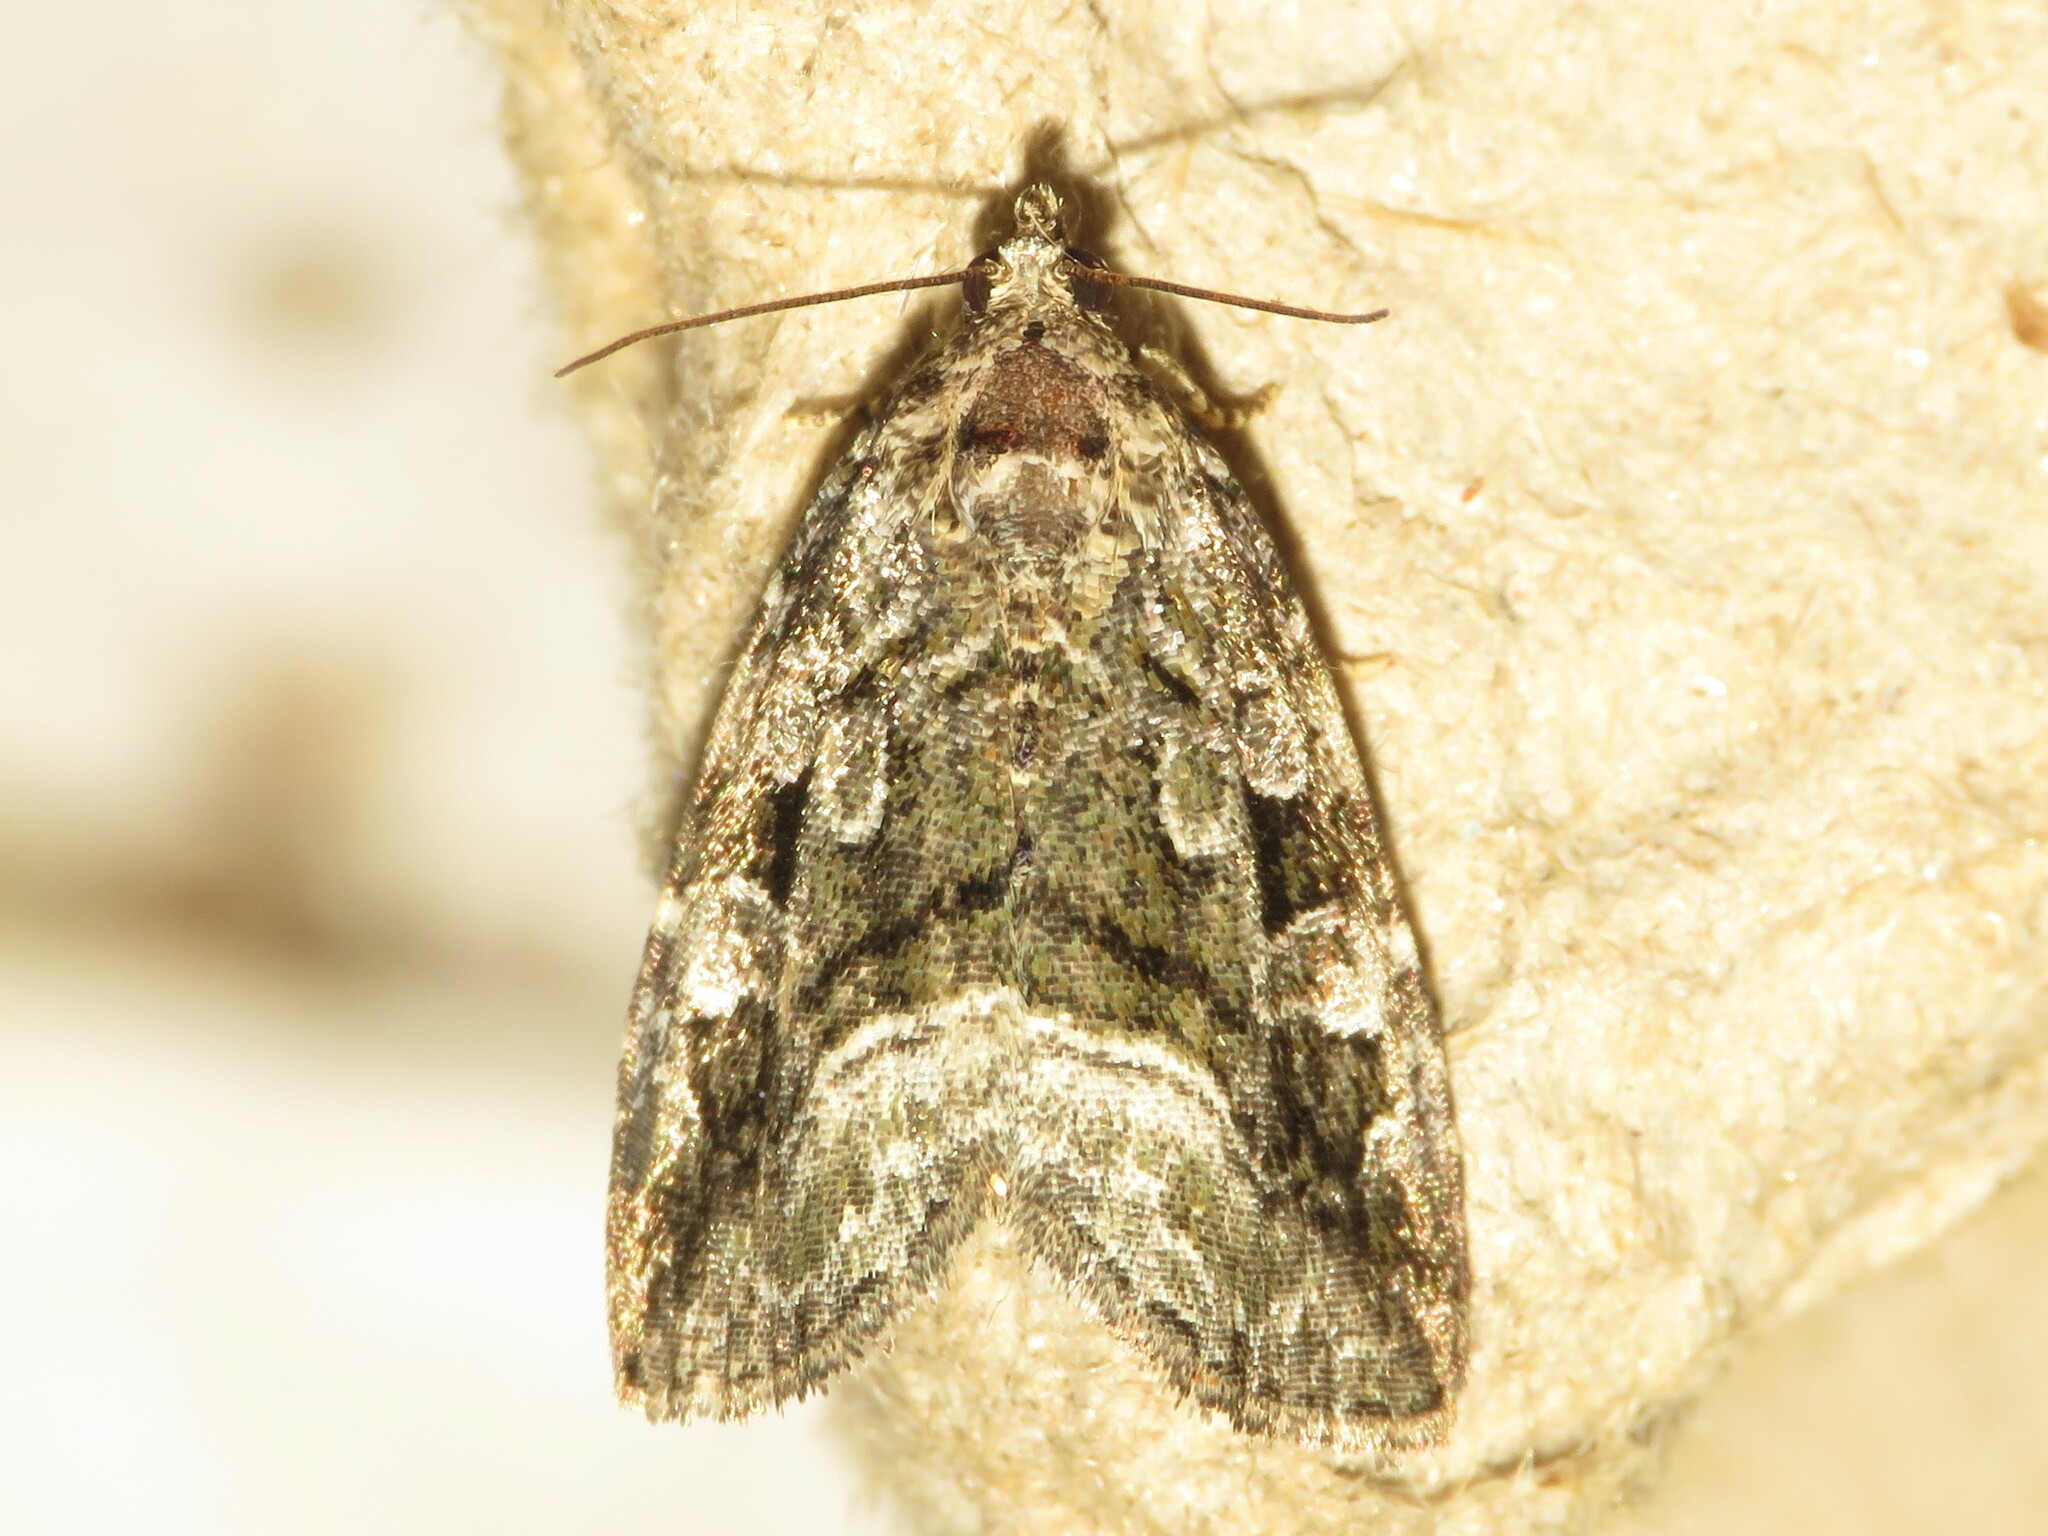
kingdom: Animalia
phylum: Arthropoda
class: Insecta
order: Lepidoptera
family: Noctuidae
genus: Protodeltote
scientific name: Protodeltote muscosula
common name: Large mossy glyph
